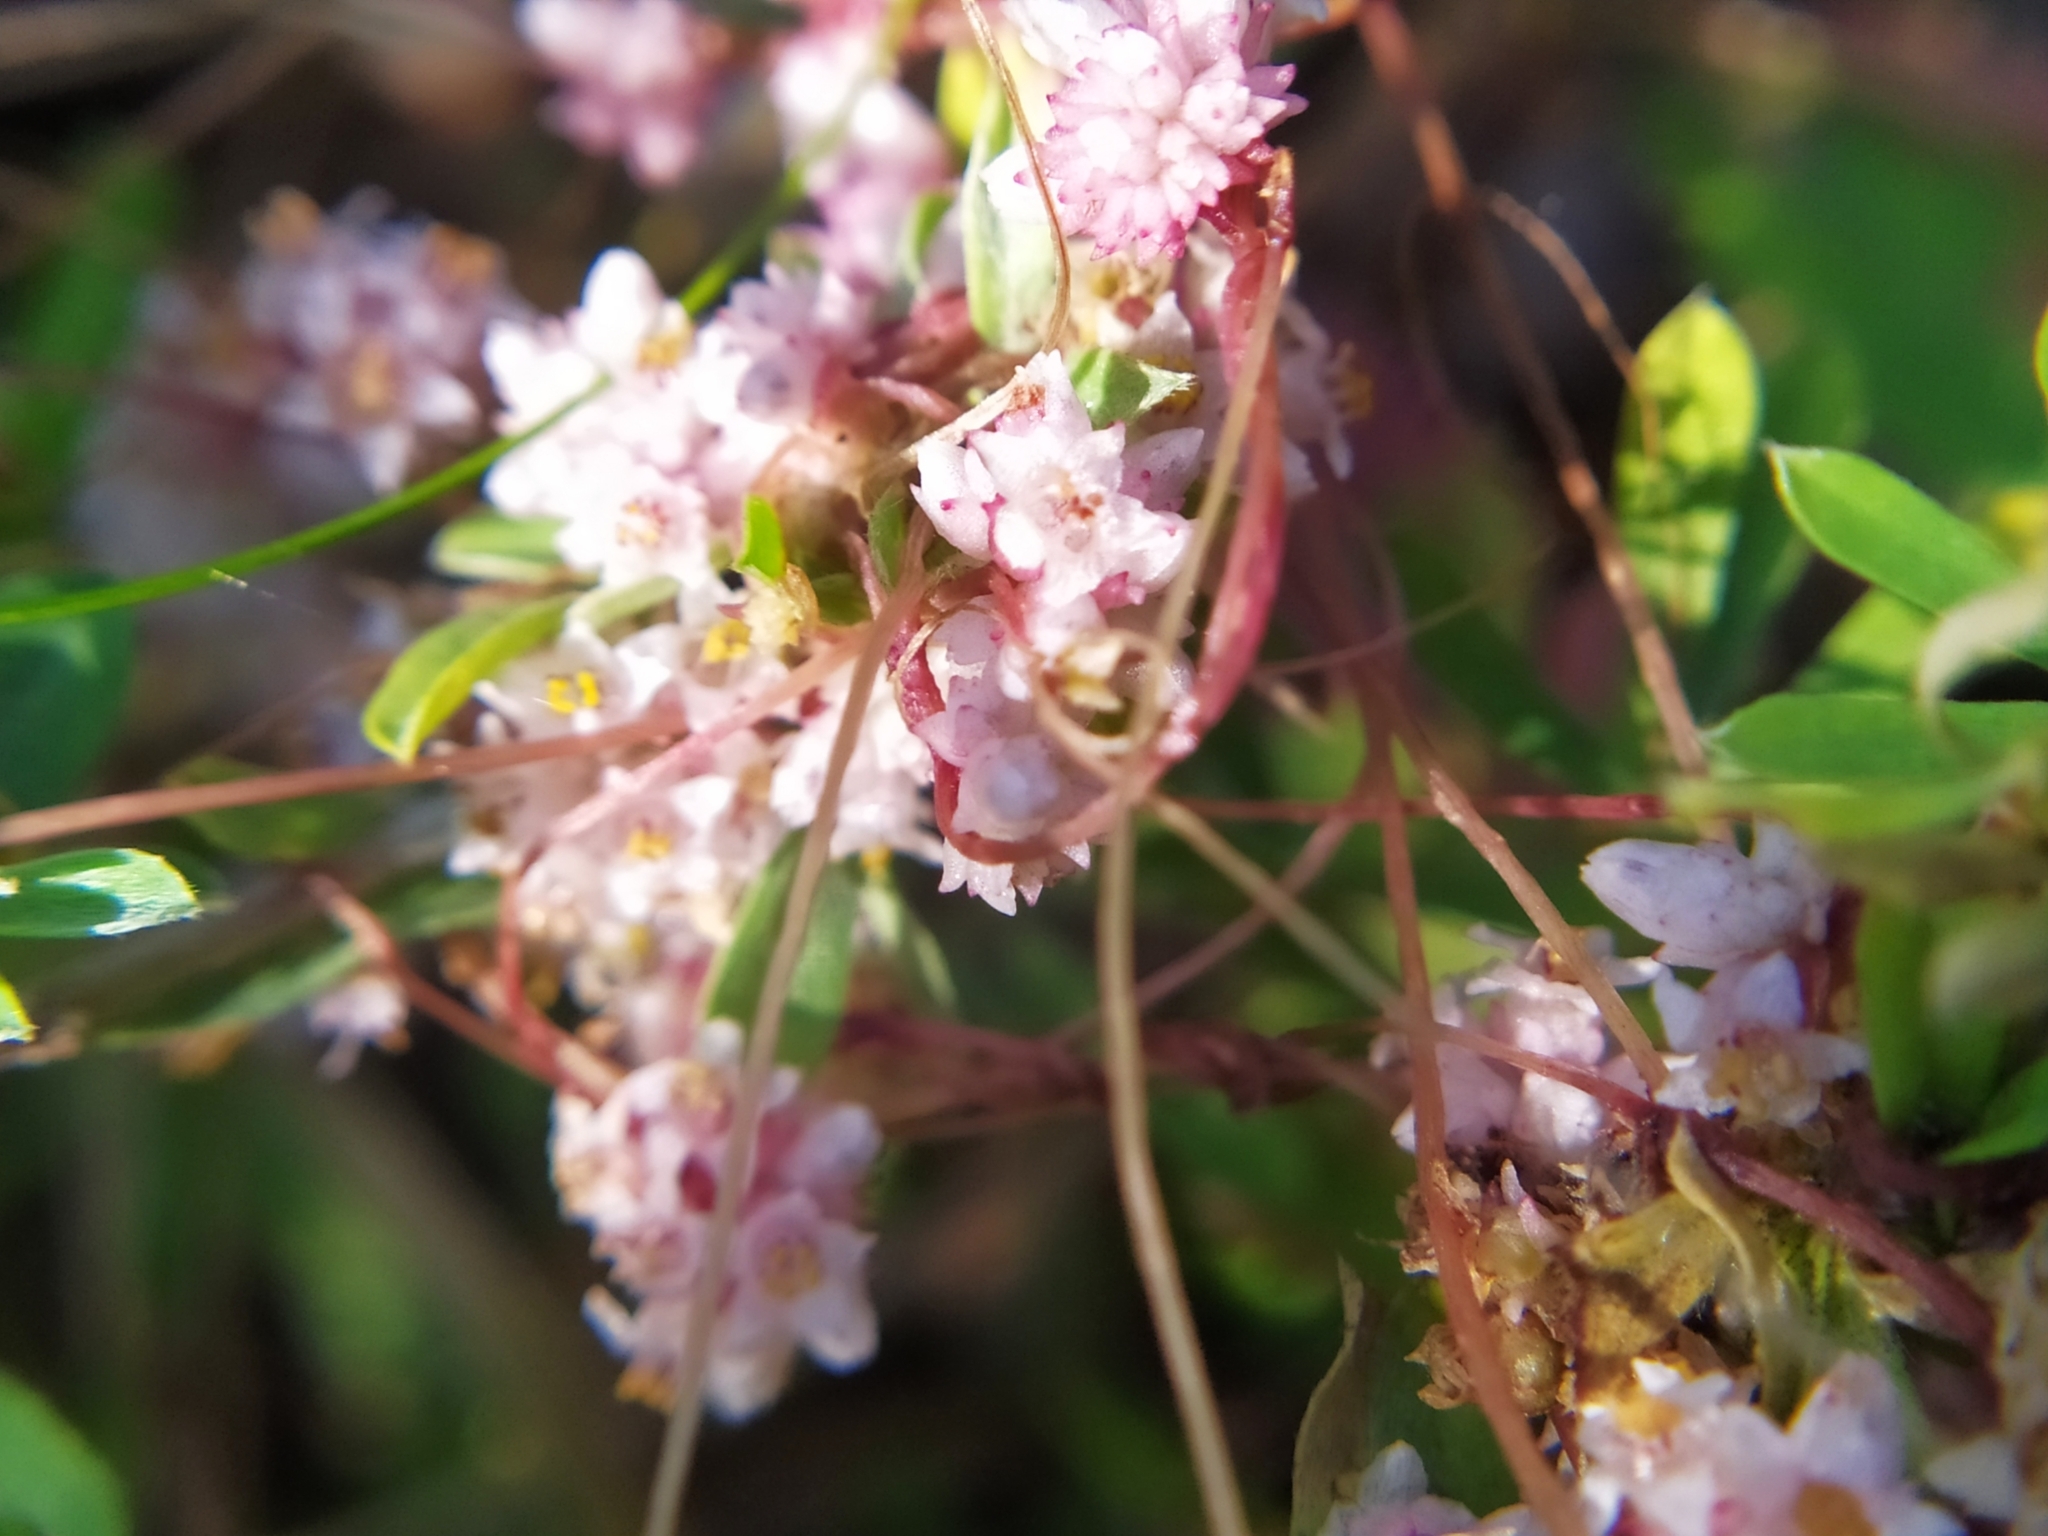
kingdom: Plantae
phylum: Tracheophyta
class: Magnoliopsida
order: Solanales
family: Convolvulaceae
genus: Cuscuta
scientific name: Cuscuta epithymum
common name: Clover dodder
